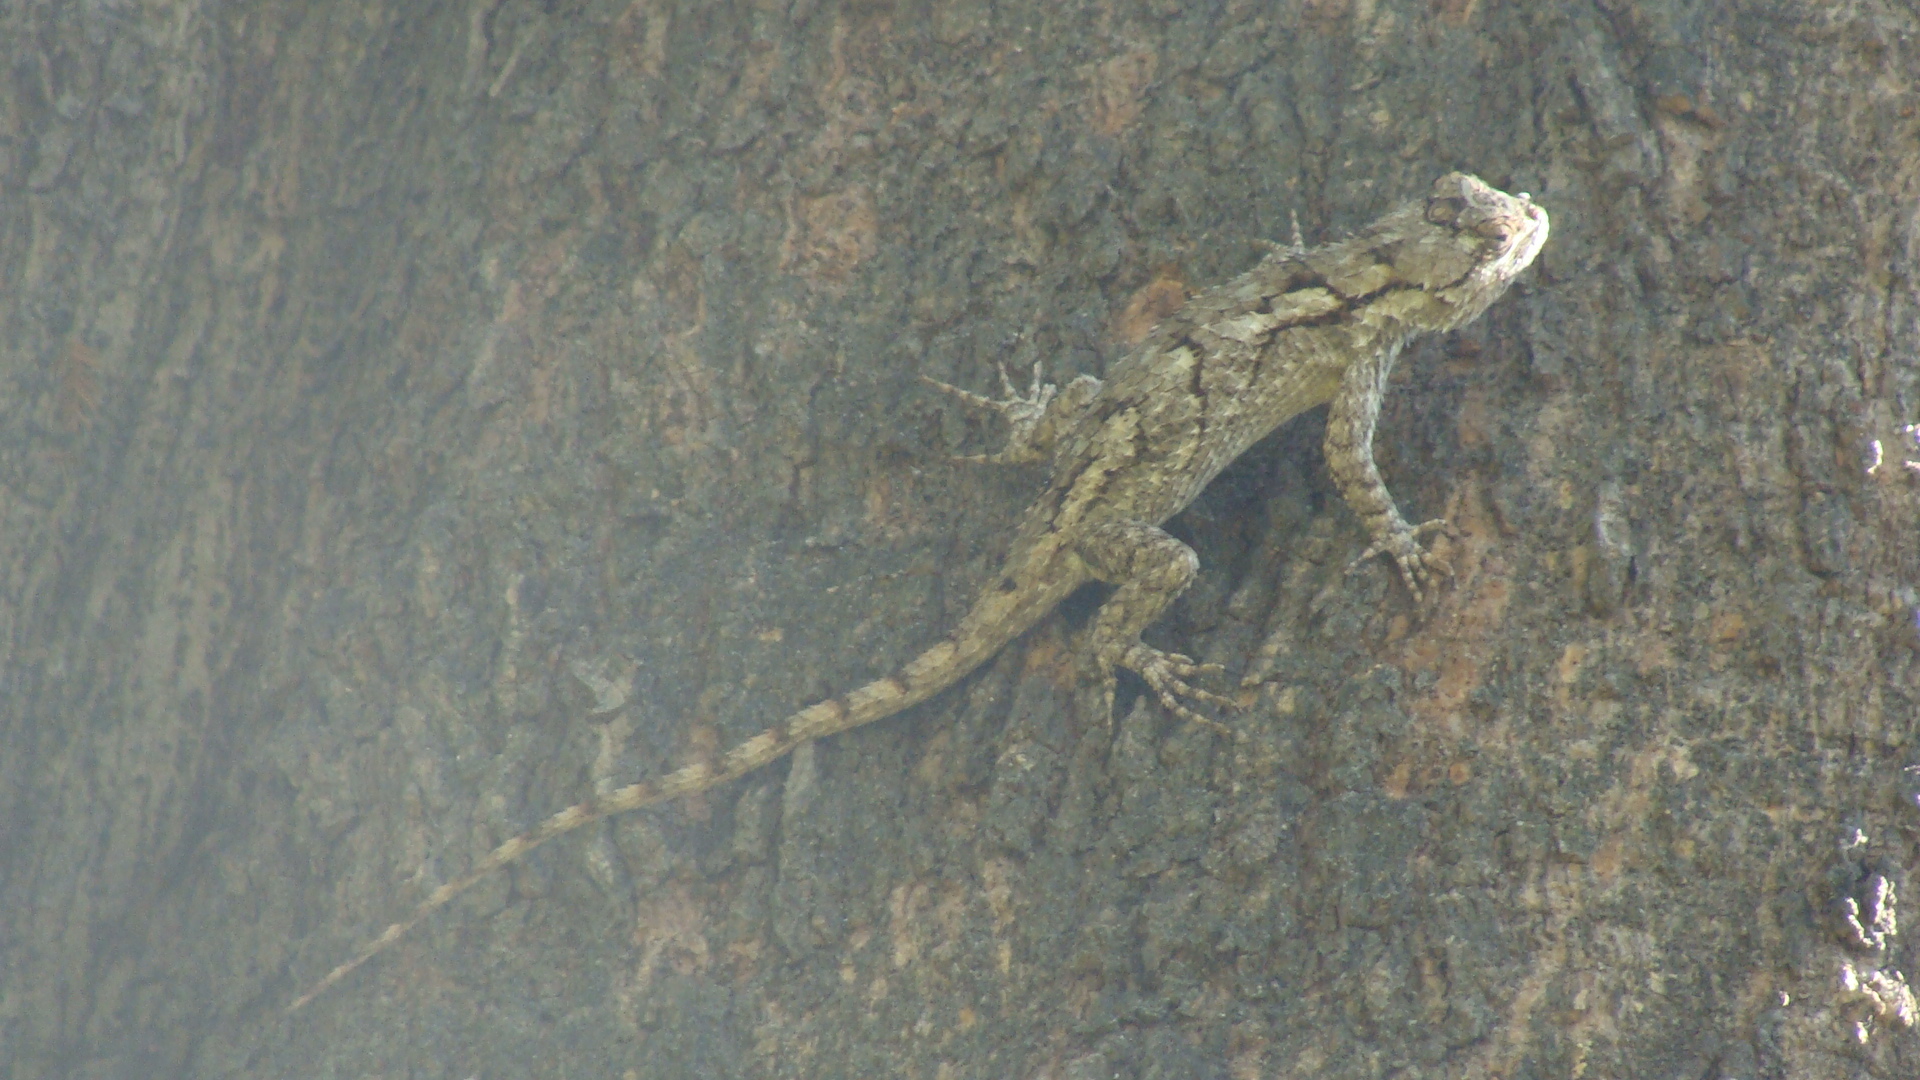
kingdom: Animalia
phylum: Chordata
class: Squamata
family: Phrynosomatidae
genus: Sceloporus
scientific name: Sceloporus spinosus
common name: Blue-spotted spiny lizard [caeruleopunctatus]
